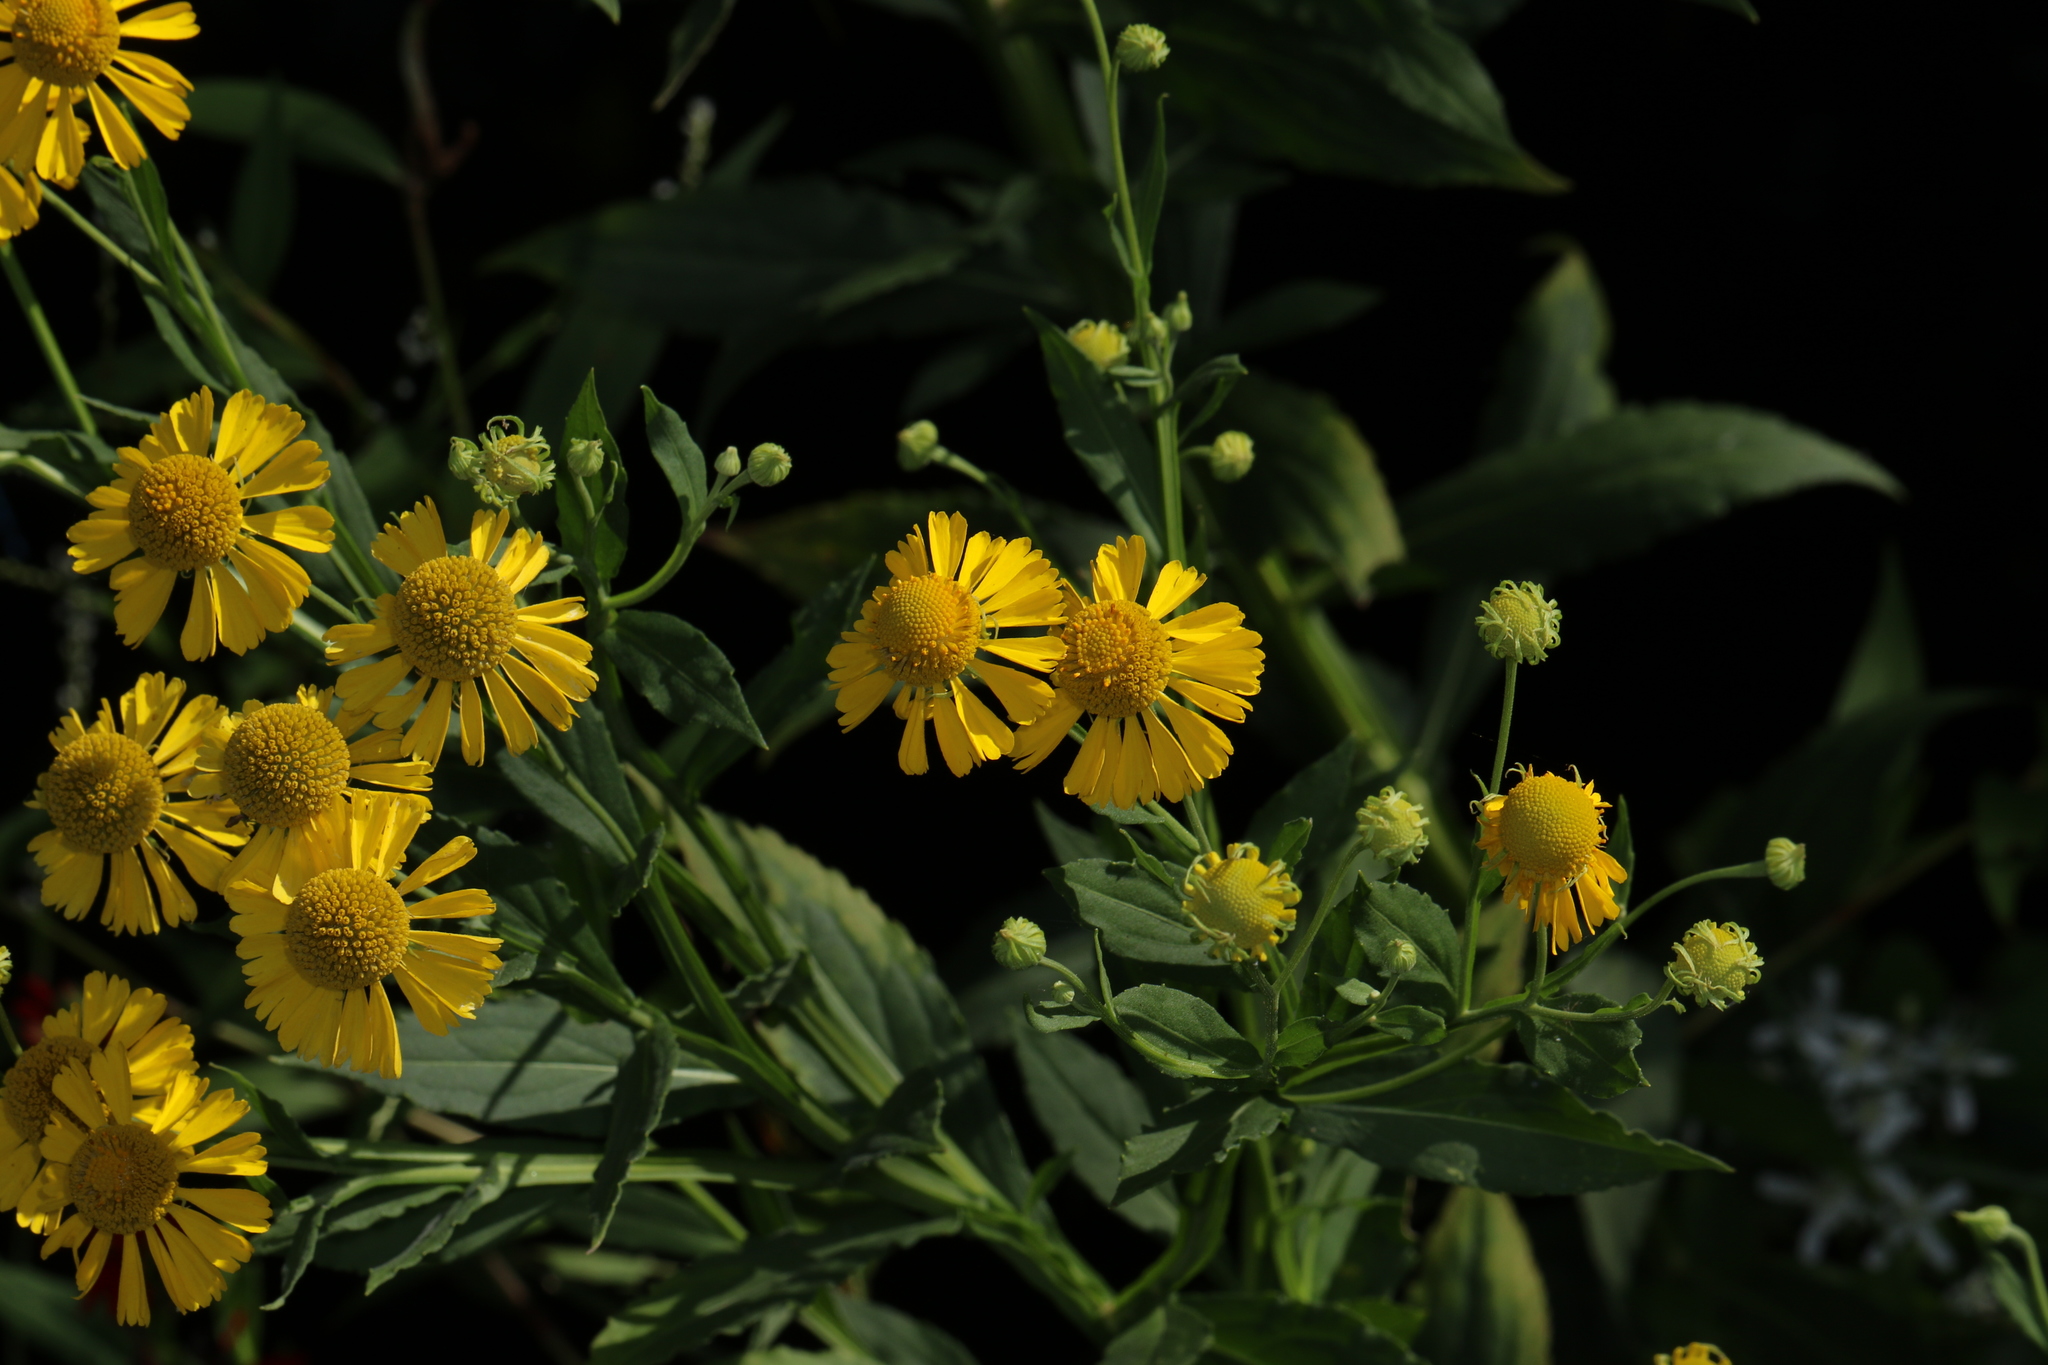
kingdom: Plantae
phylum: Tracheophyta
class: Magnoliopsida
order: Asterales
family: Asteraceae
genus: Helenium
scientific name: Helenium autumnale
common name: Sneezeweed
